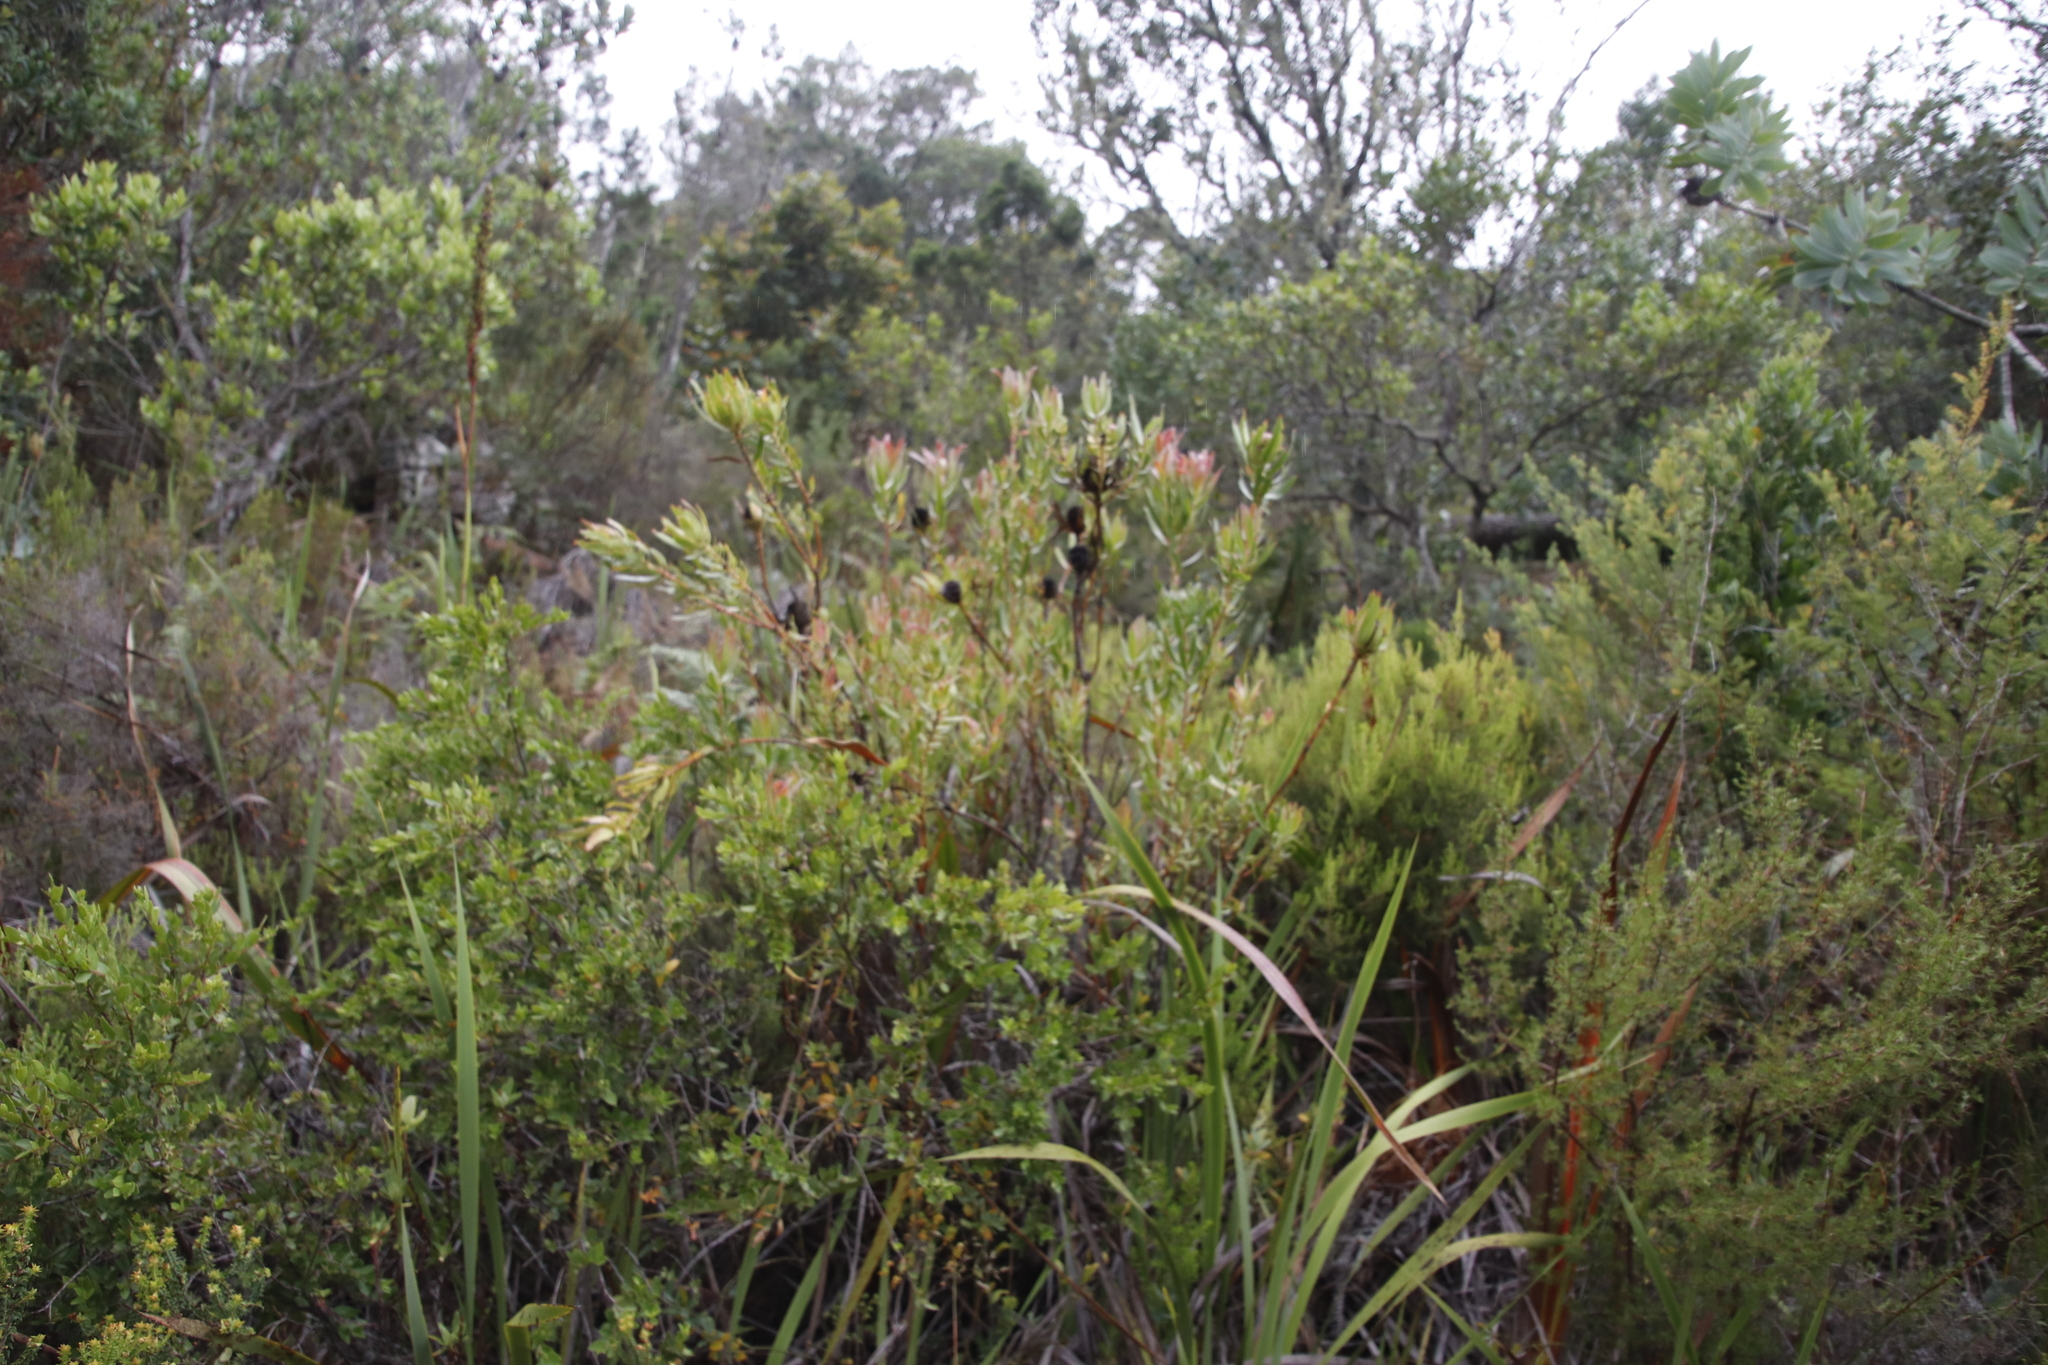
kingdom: Plantae
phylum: Tracheophyta
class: Magnoliopsida
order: Proteales
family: Proteaceae
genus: Leucadendron
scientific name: Leucadendron spissifolium
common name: Spear-leaf conebush
